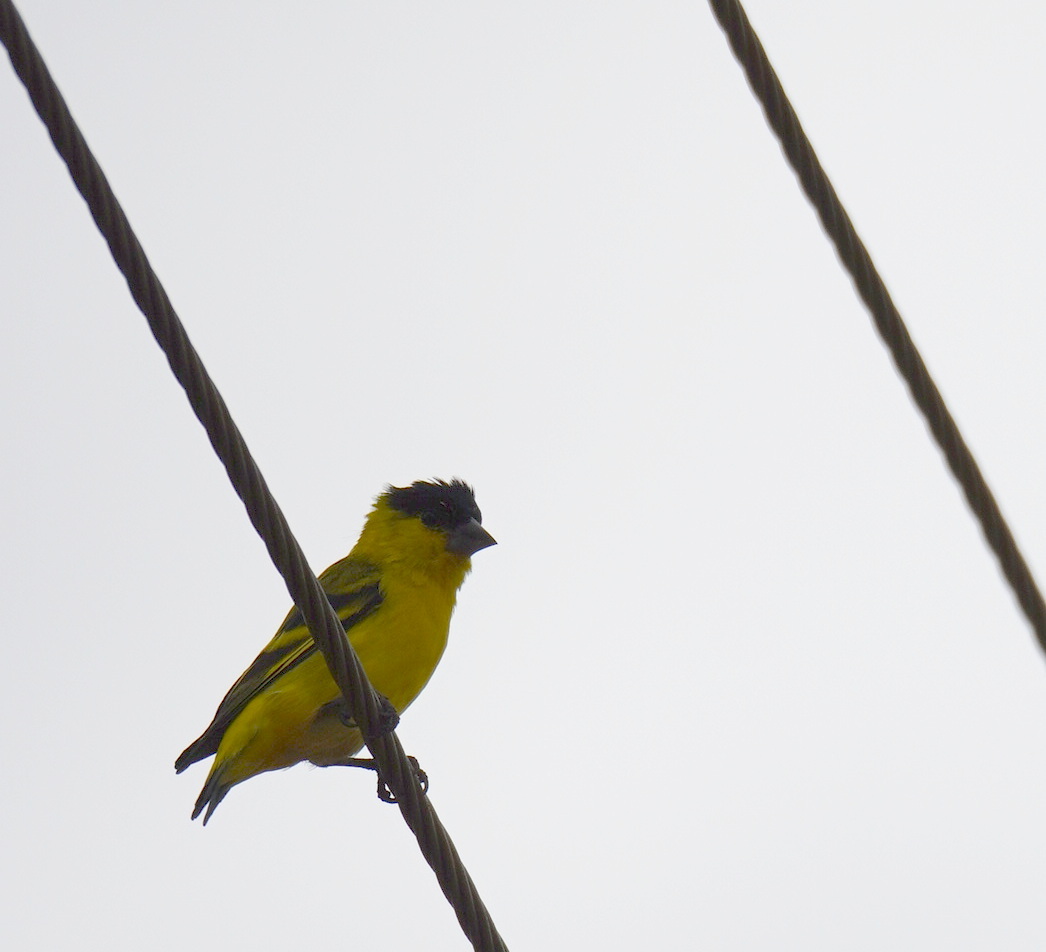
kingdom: Animalia
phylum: Chordata
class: Aves
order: Passeriformes
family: Fringillidae
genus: Spinus
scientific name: Spinus yarrellii
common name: Yellow-faced siskin
